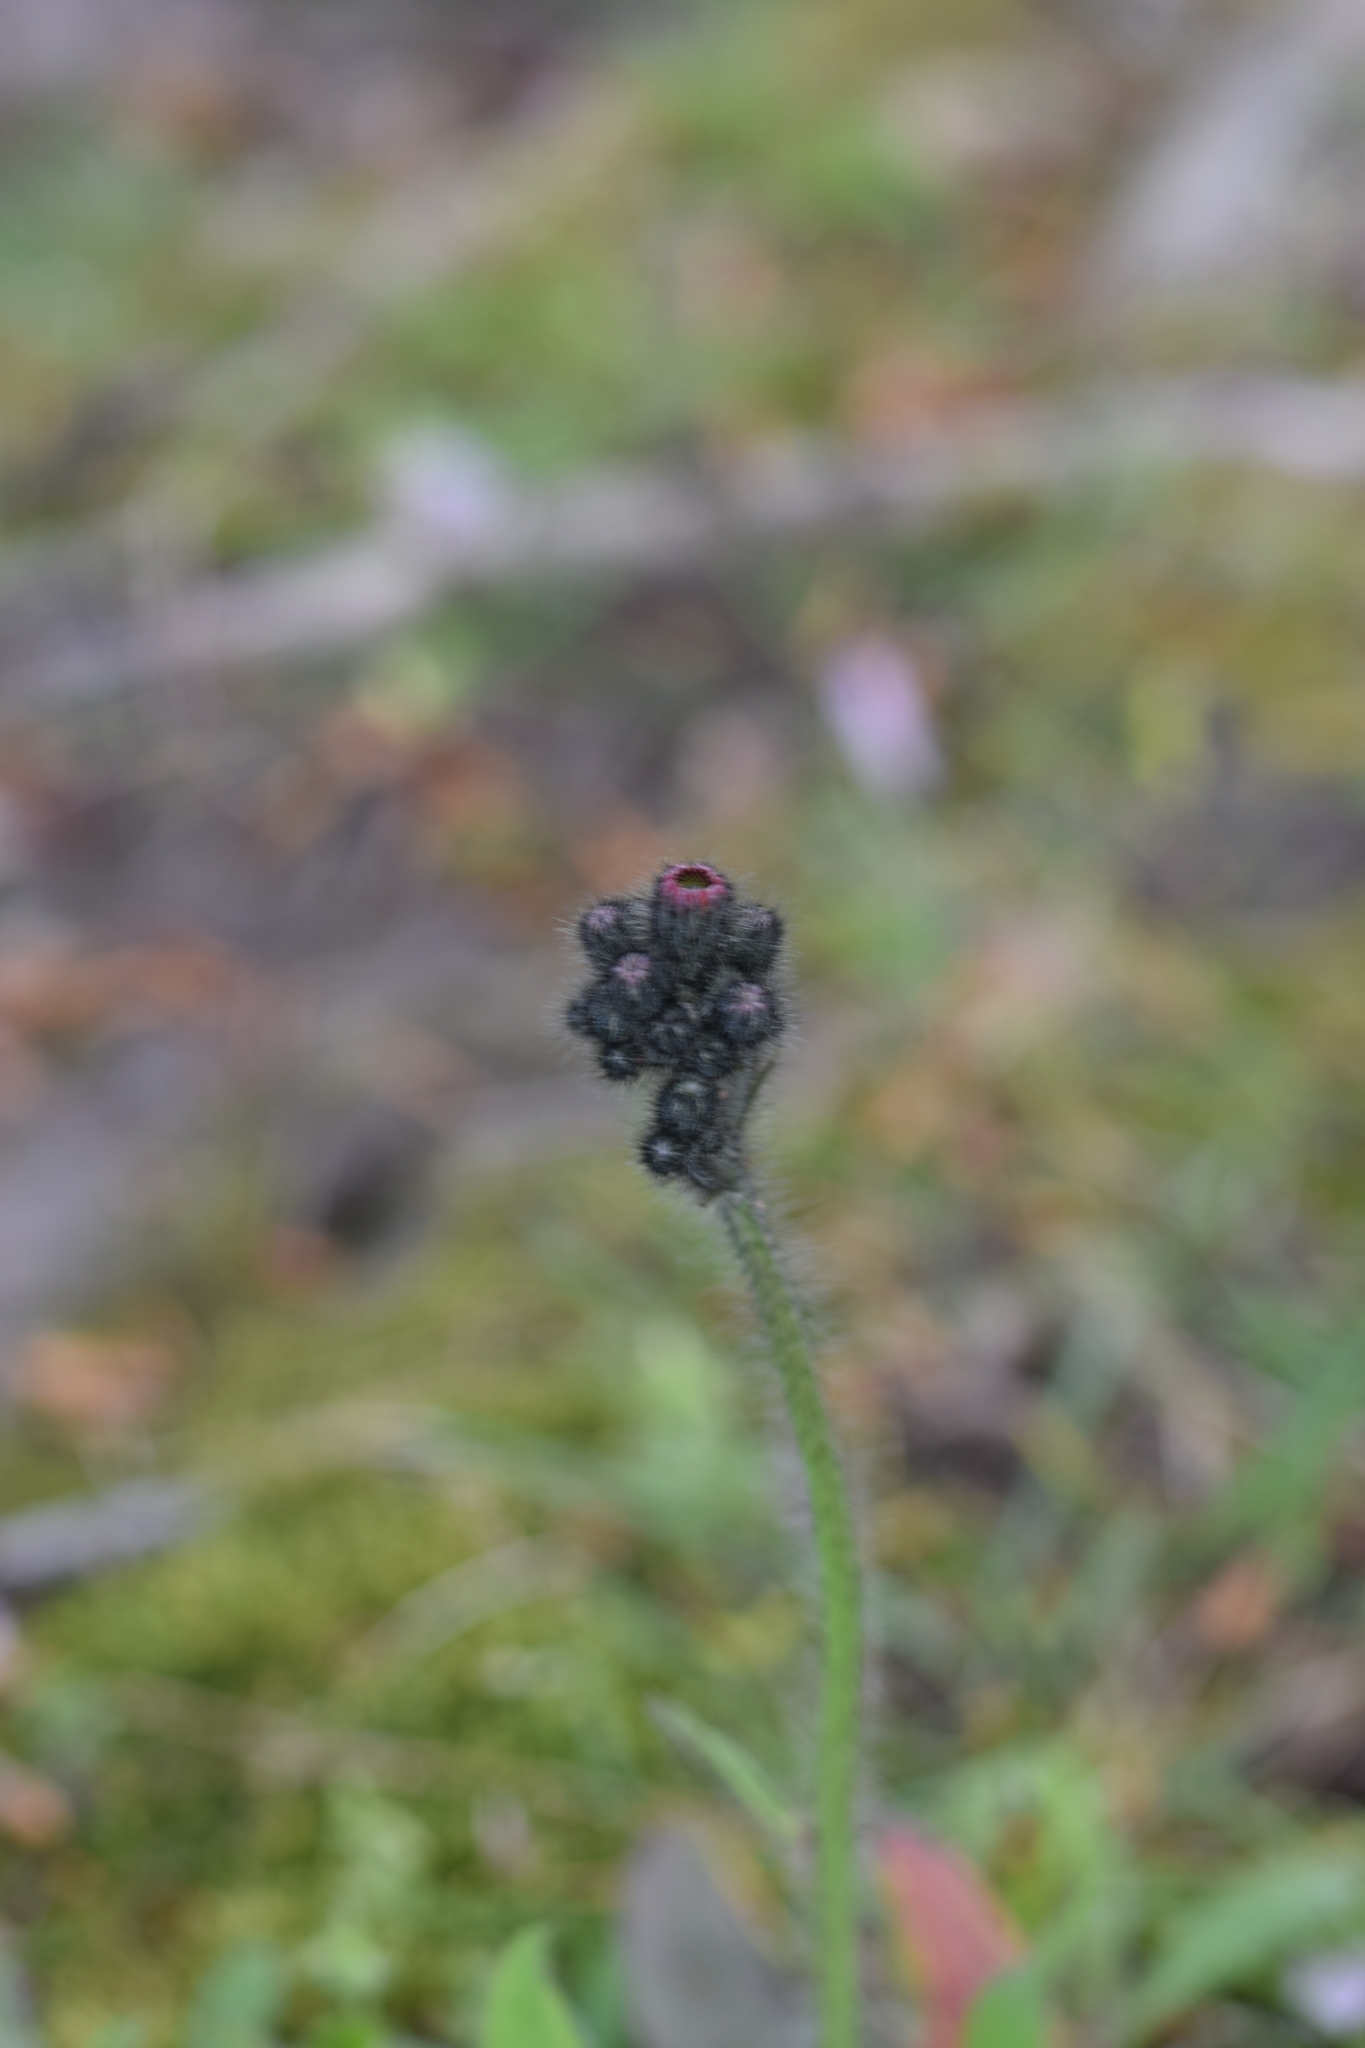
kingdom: Plantae
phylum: Tracheophyta
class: Magnoliopsida
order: Asterales
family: Asteraceae
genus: Pilosella
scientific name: Pilosella aurantiaca
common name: Fox-and-cubs
